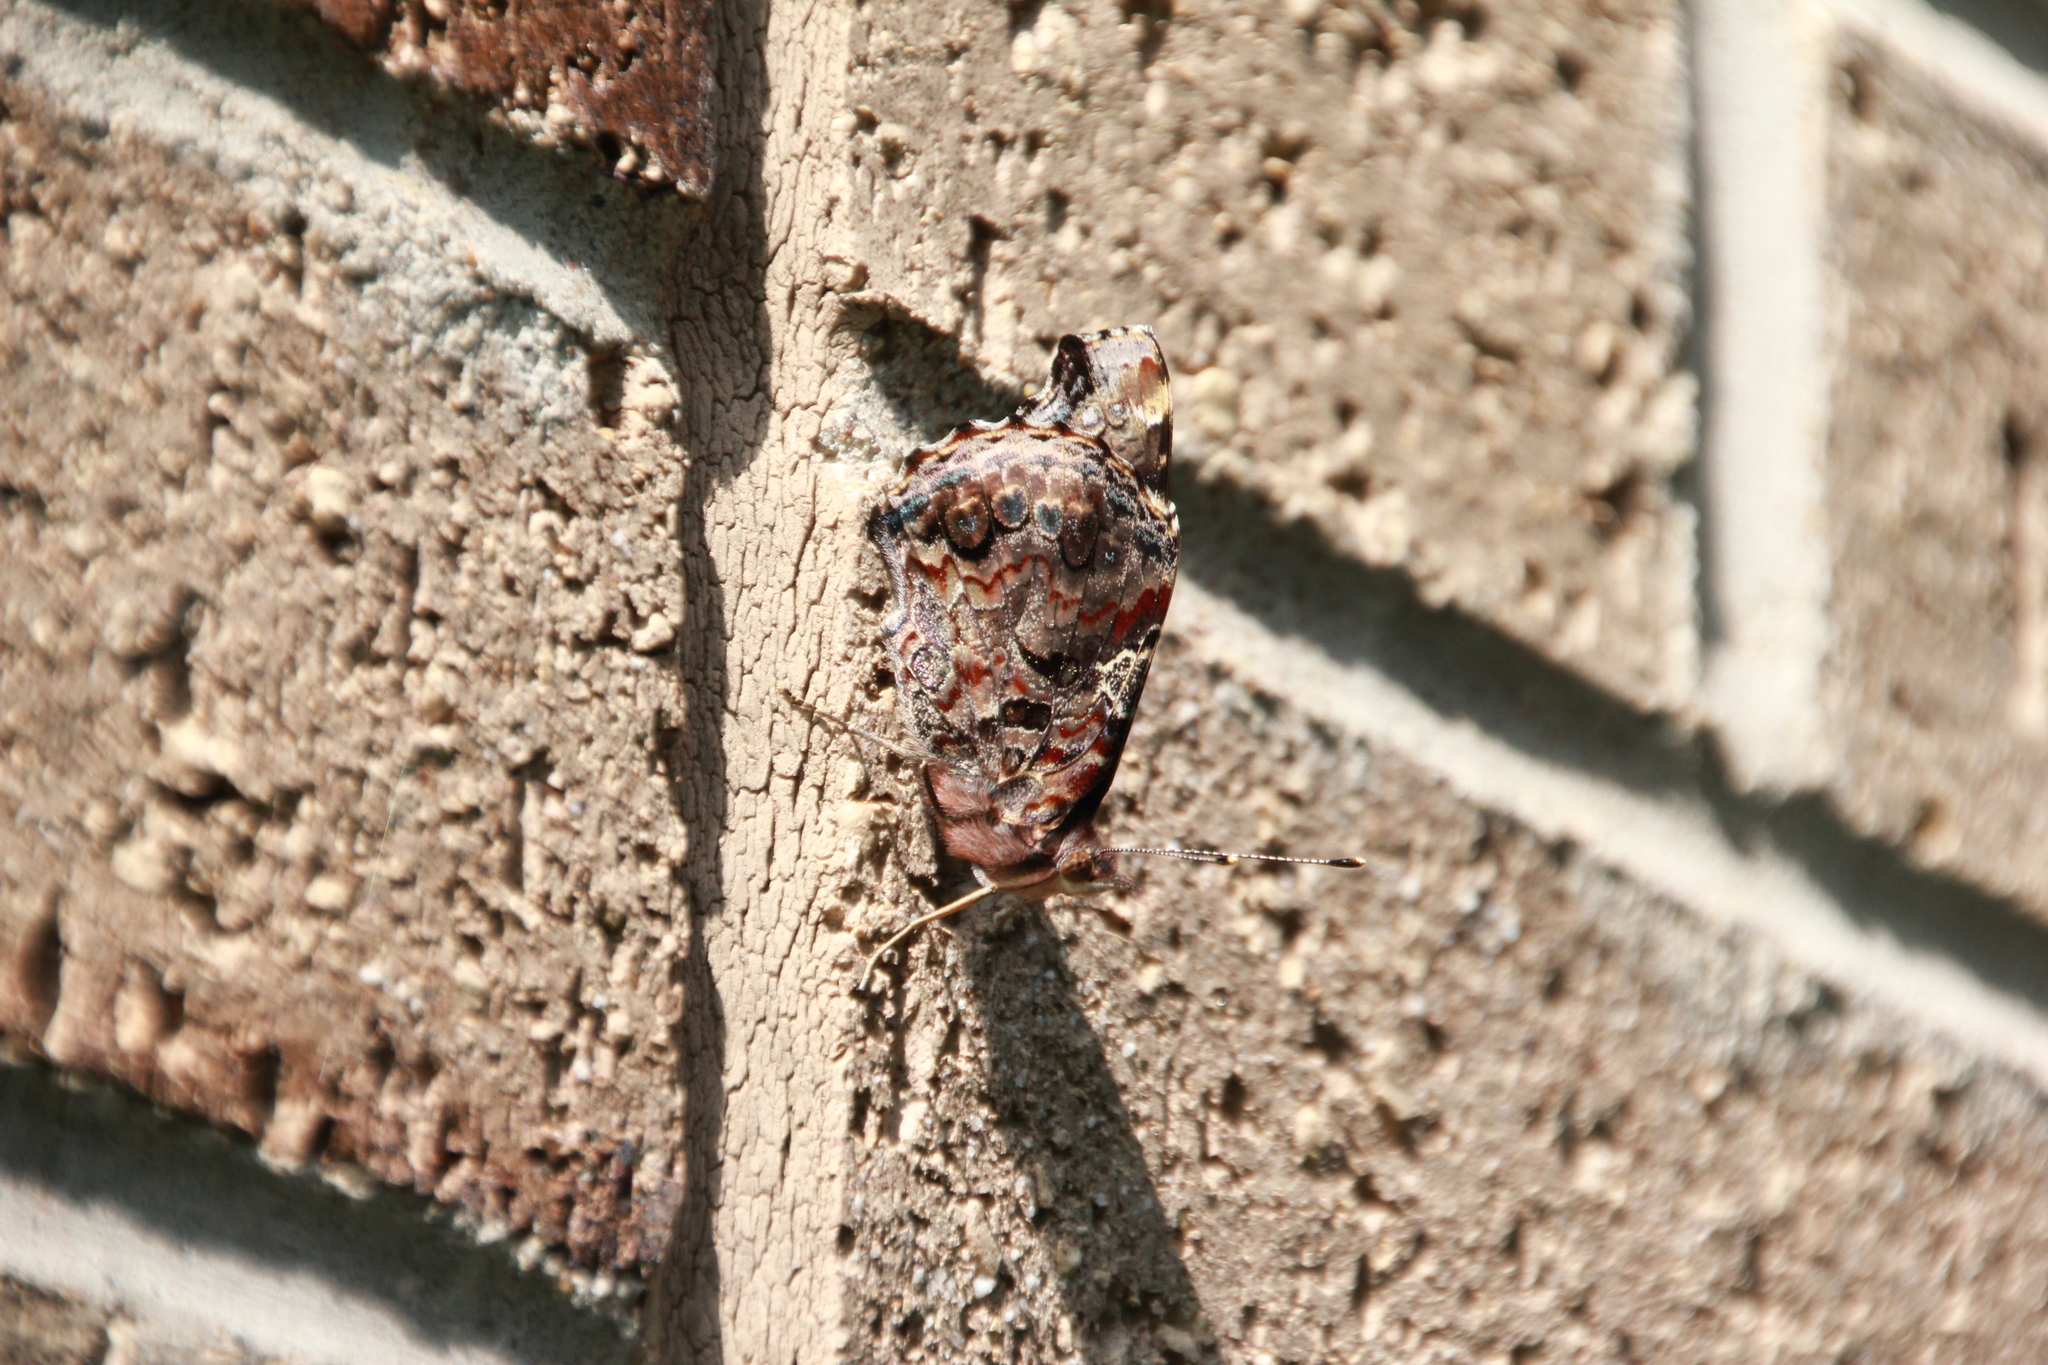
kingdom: Animalia
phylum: Arthropoda
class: Insecta
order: Lepidoptera
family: Nymphalidae
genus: Vanessa
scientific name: Vanessa atalanta
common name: Red admiral
